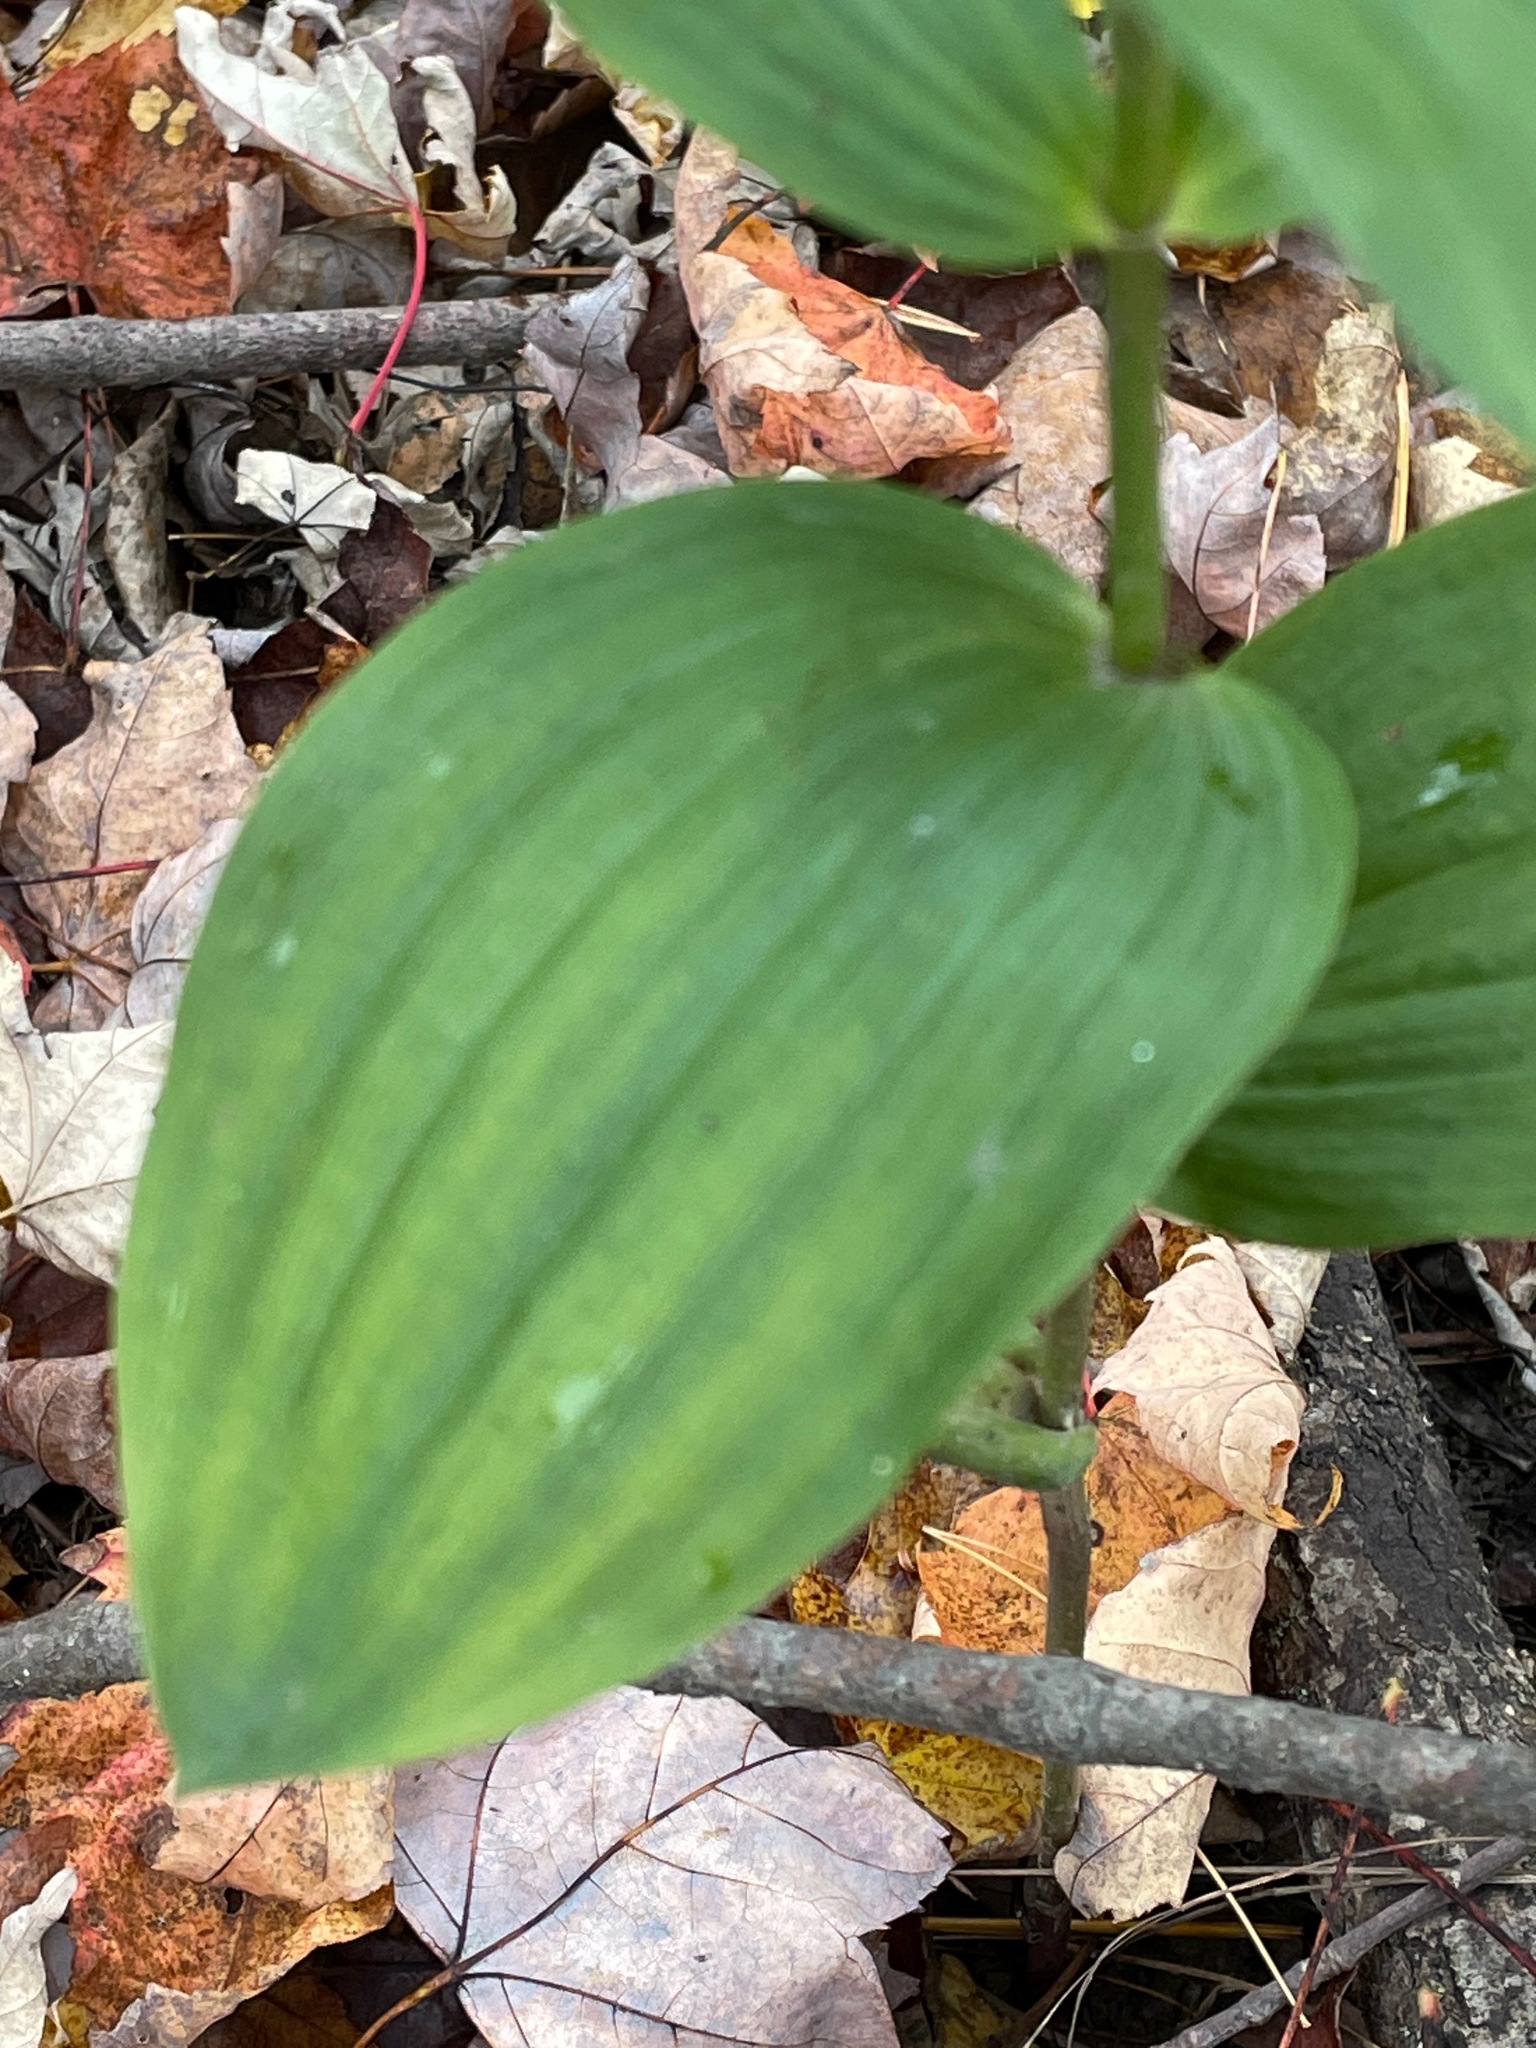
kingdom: Plantae
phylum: Tracheophyta
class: Liliopsida
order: Asparagales
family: Orchidaceae
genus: Epipactis
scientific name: Epipactis helleborine
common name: Broad-leaved helleborine
